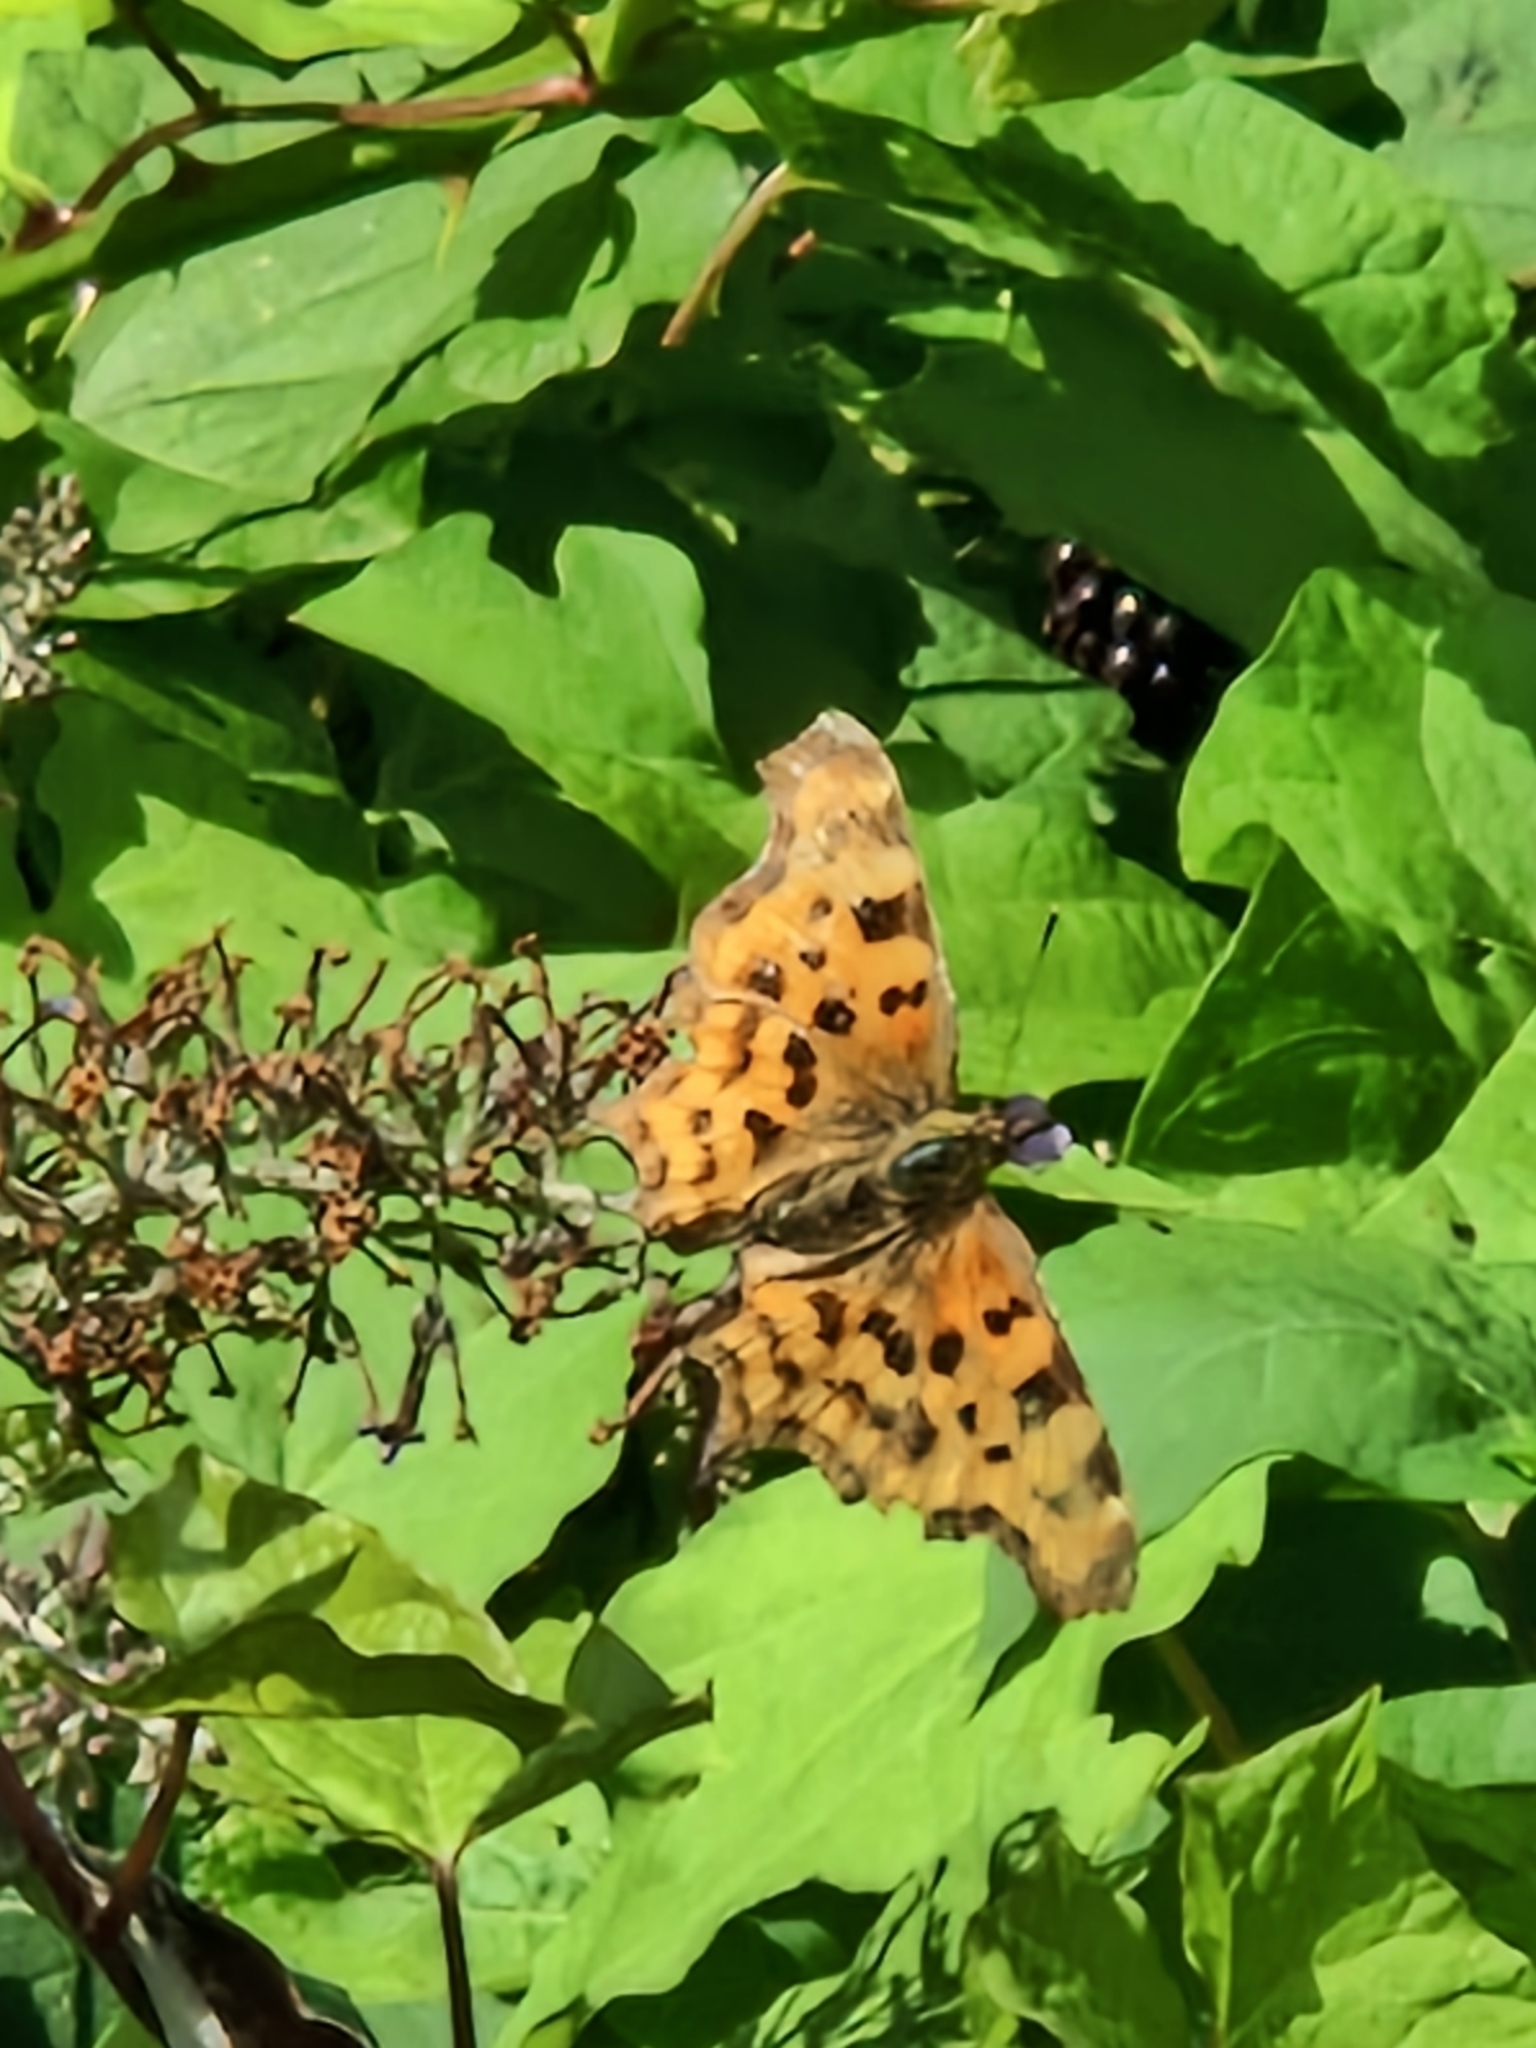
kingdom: Animalia
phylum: Arthropoda
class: Insecta
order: Lepidoptera
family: Nymphalidae
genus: Polygonia
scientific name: Polygonia c-album
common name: Comma
